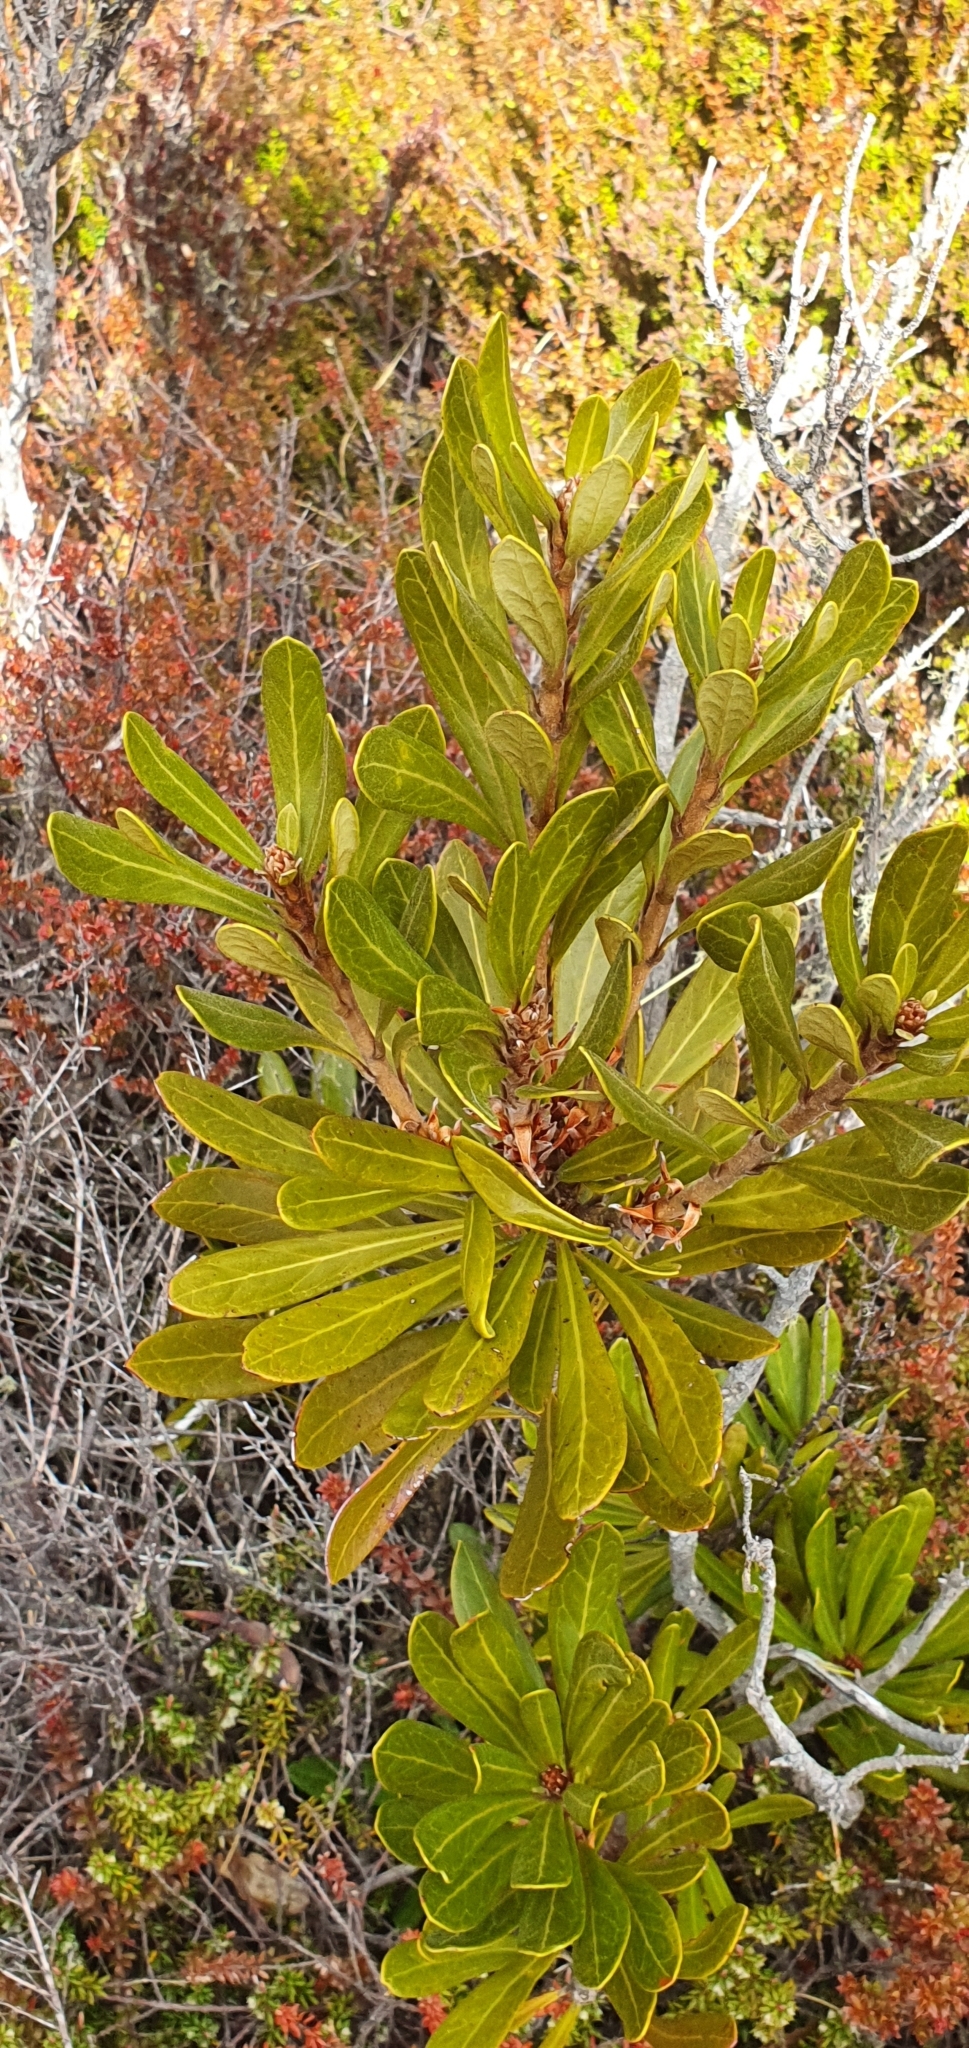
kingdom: Plantae
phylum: Tracheophyta
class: Magnoliopsida
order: Proteales
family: Proteaceae
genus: Telopea
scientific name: Telopea truncata
